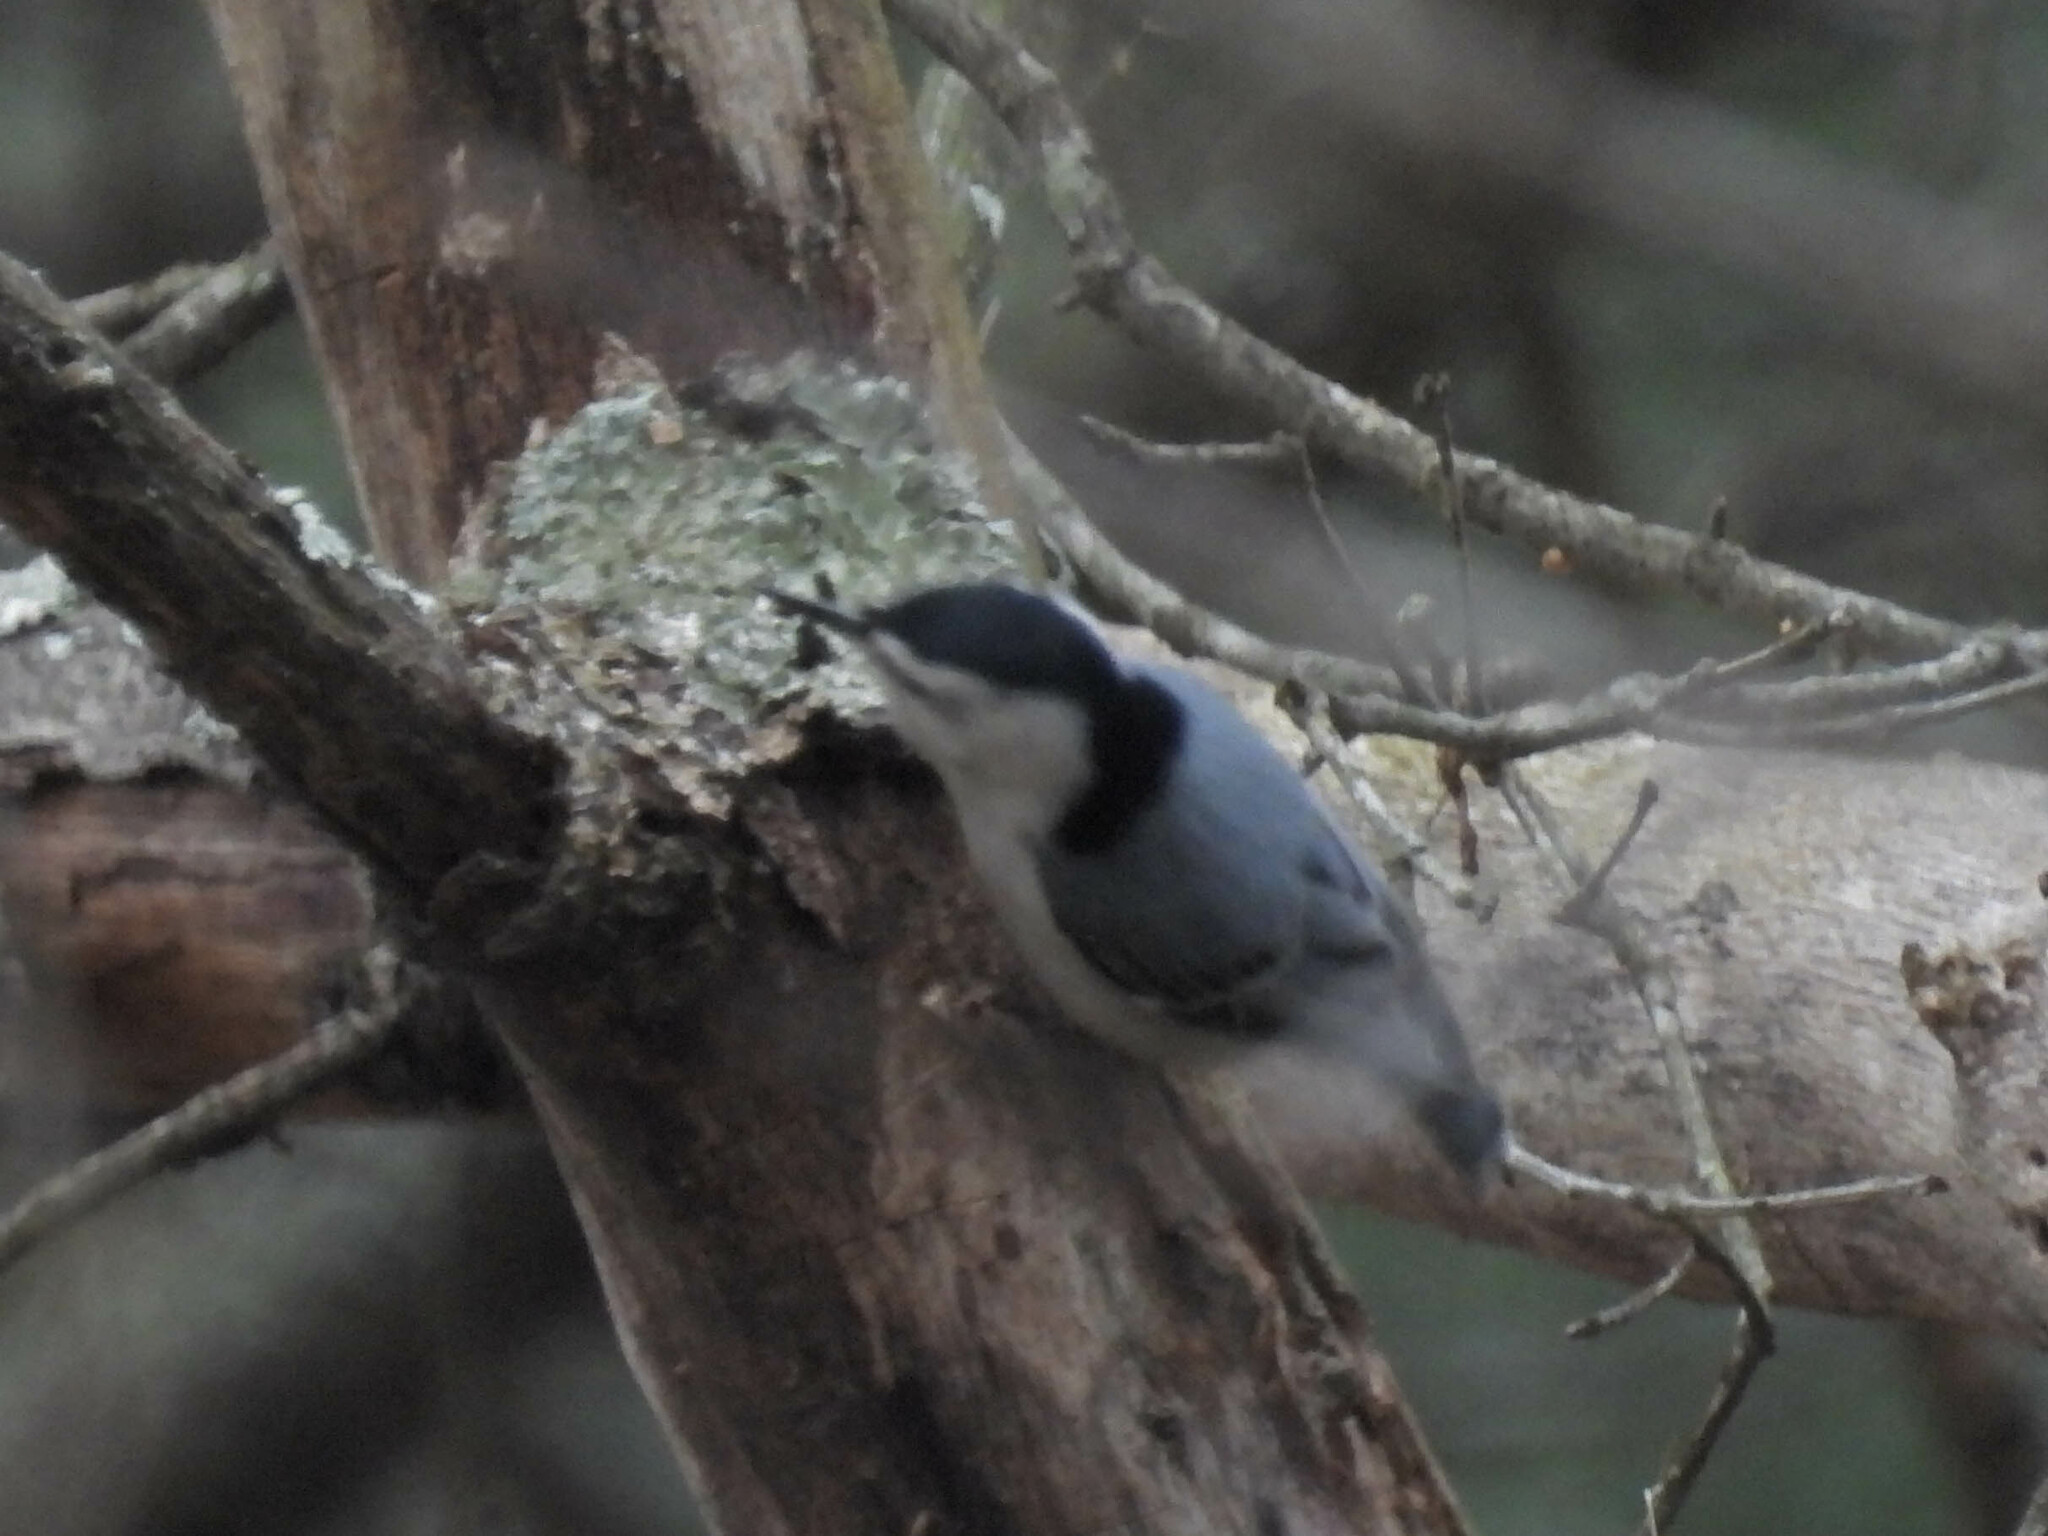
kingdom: Animalia
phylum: Chordata
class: Aves
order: Passeriformes
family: Sittidae
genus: Sitta
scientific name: Sitta carolinensis
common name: White-breasted nuthatch
